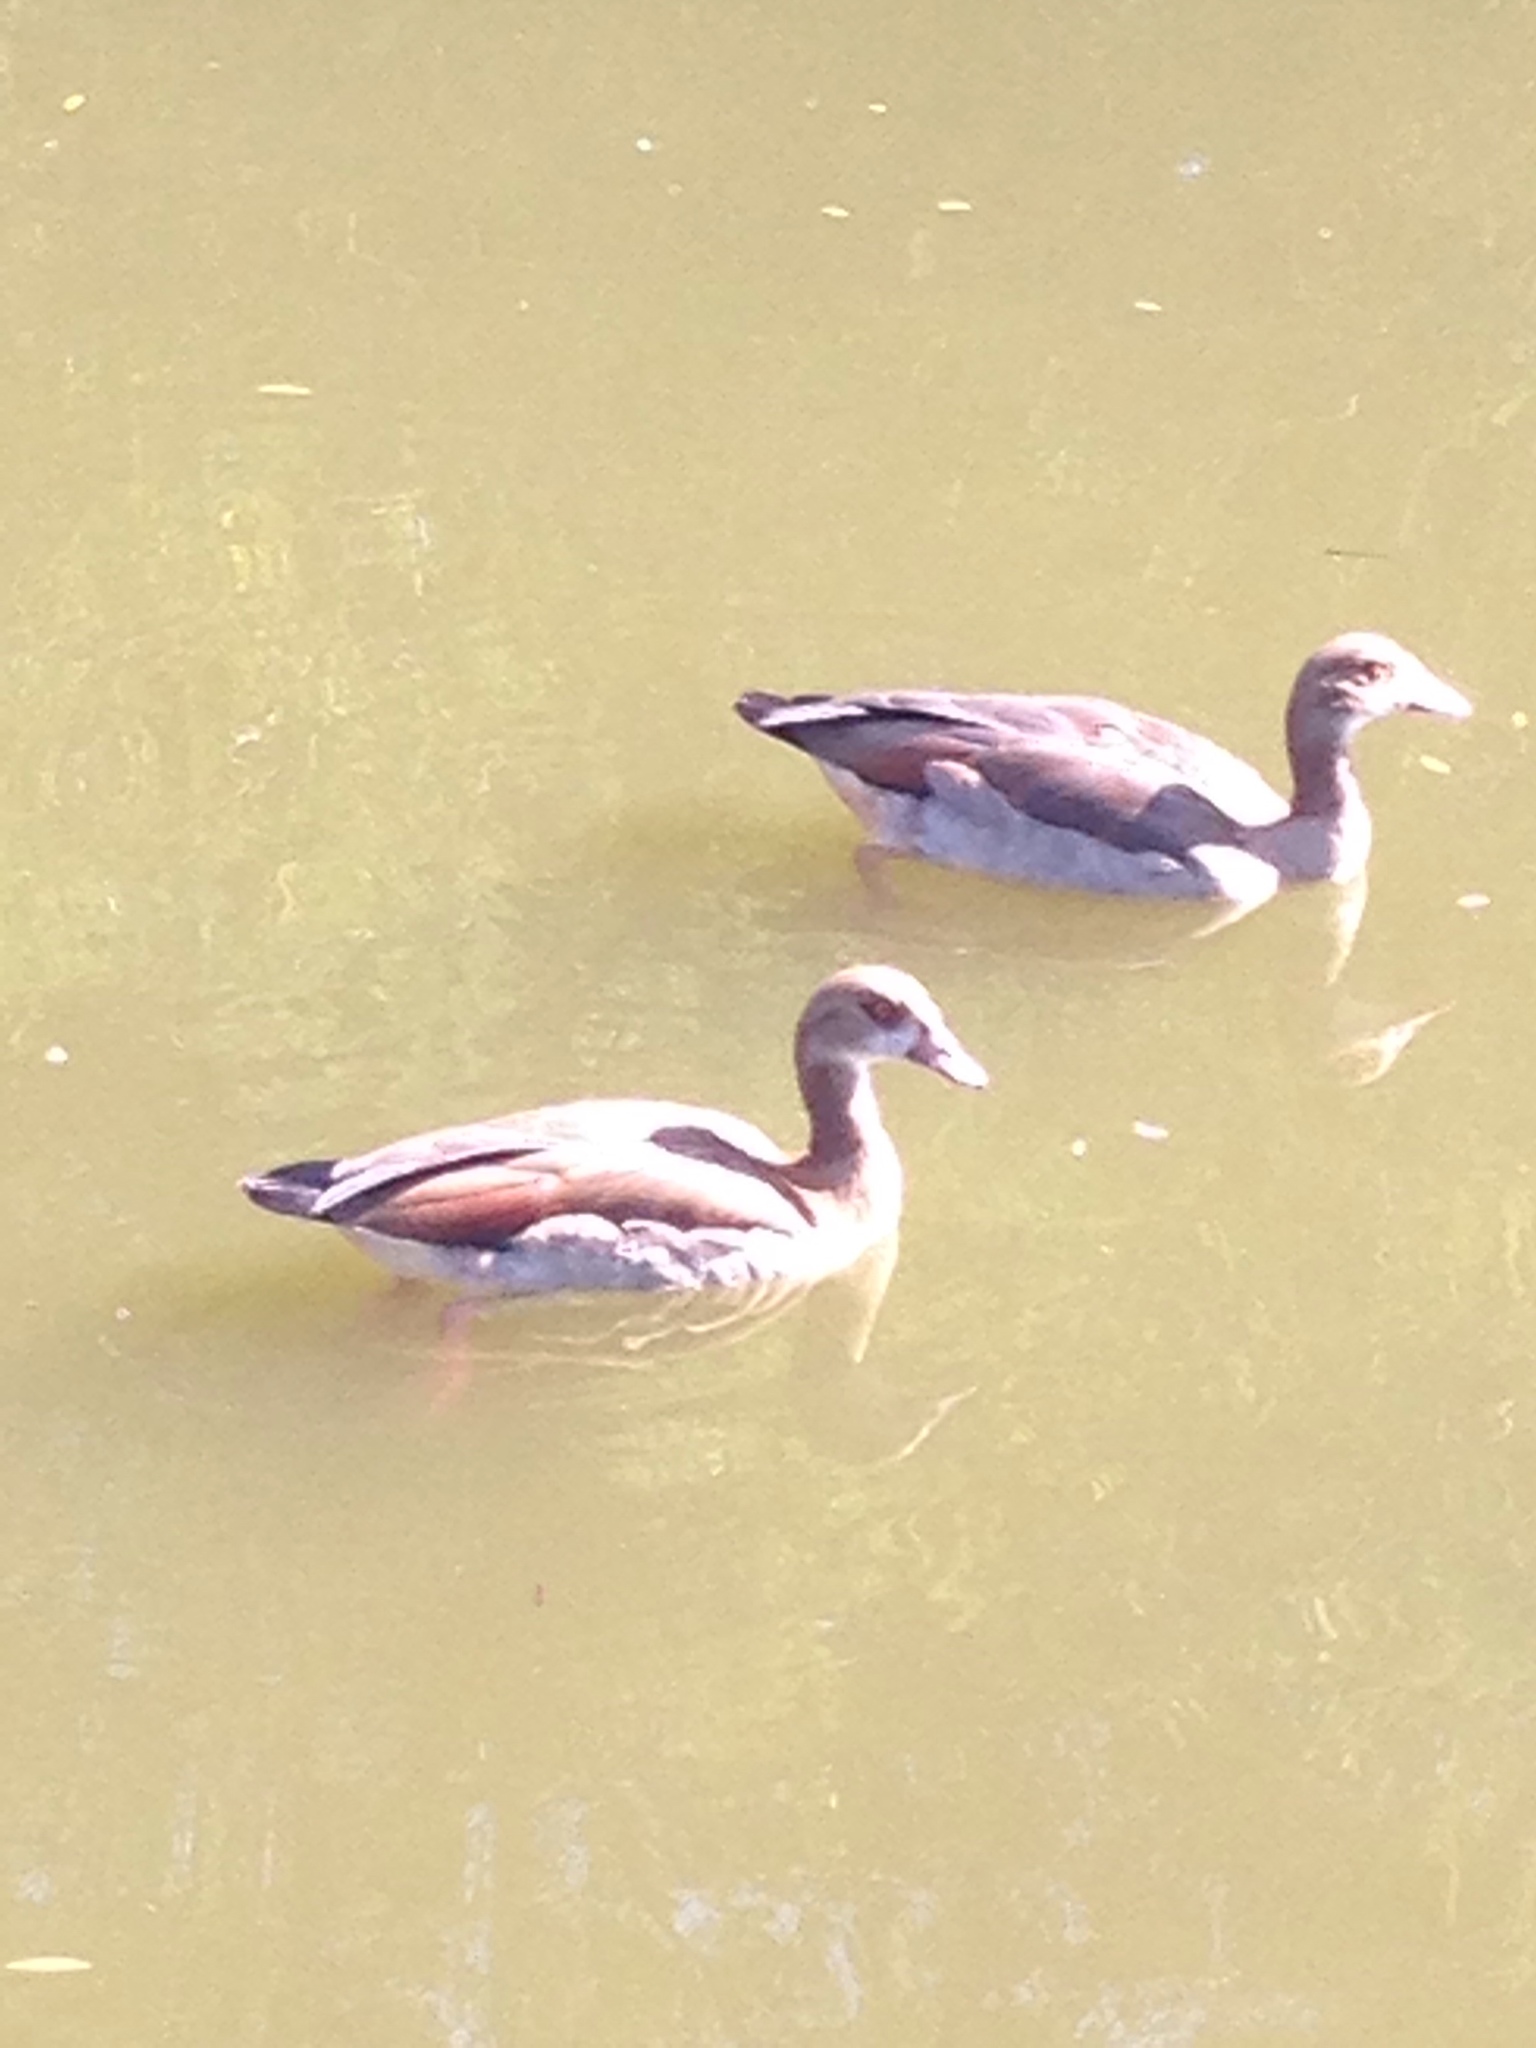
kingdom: Animalia
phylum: Chordata
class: Aves
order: Anseriformes
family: Anatidae
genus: Alopochen
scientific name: Alopochen aegyptiaca
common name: Egyptian goose
